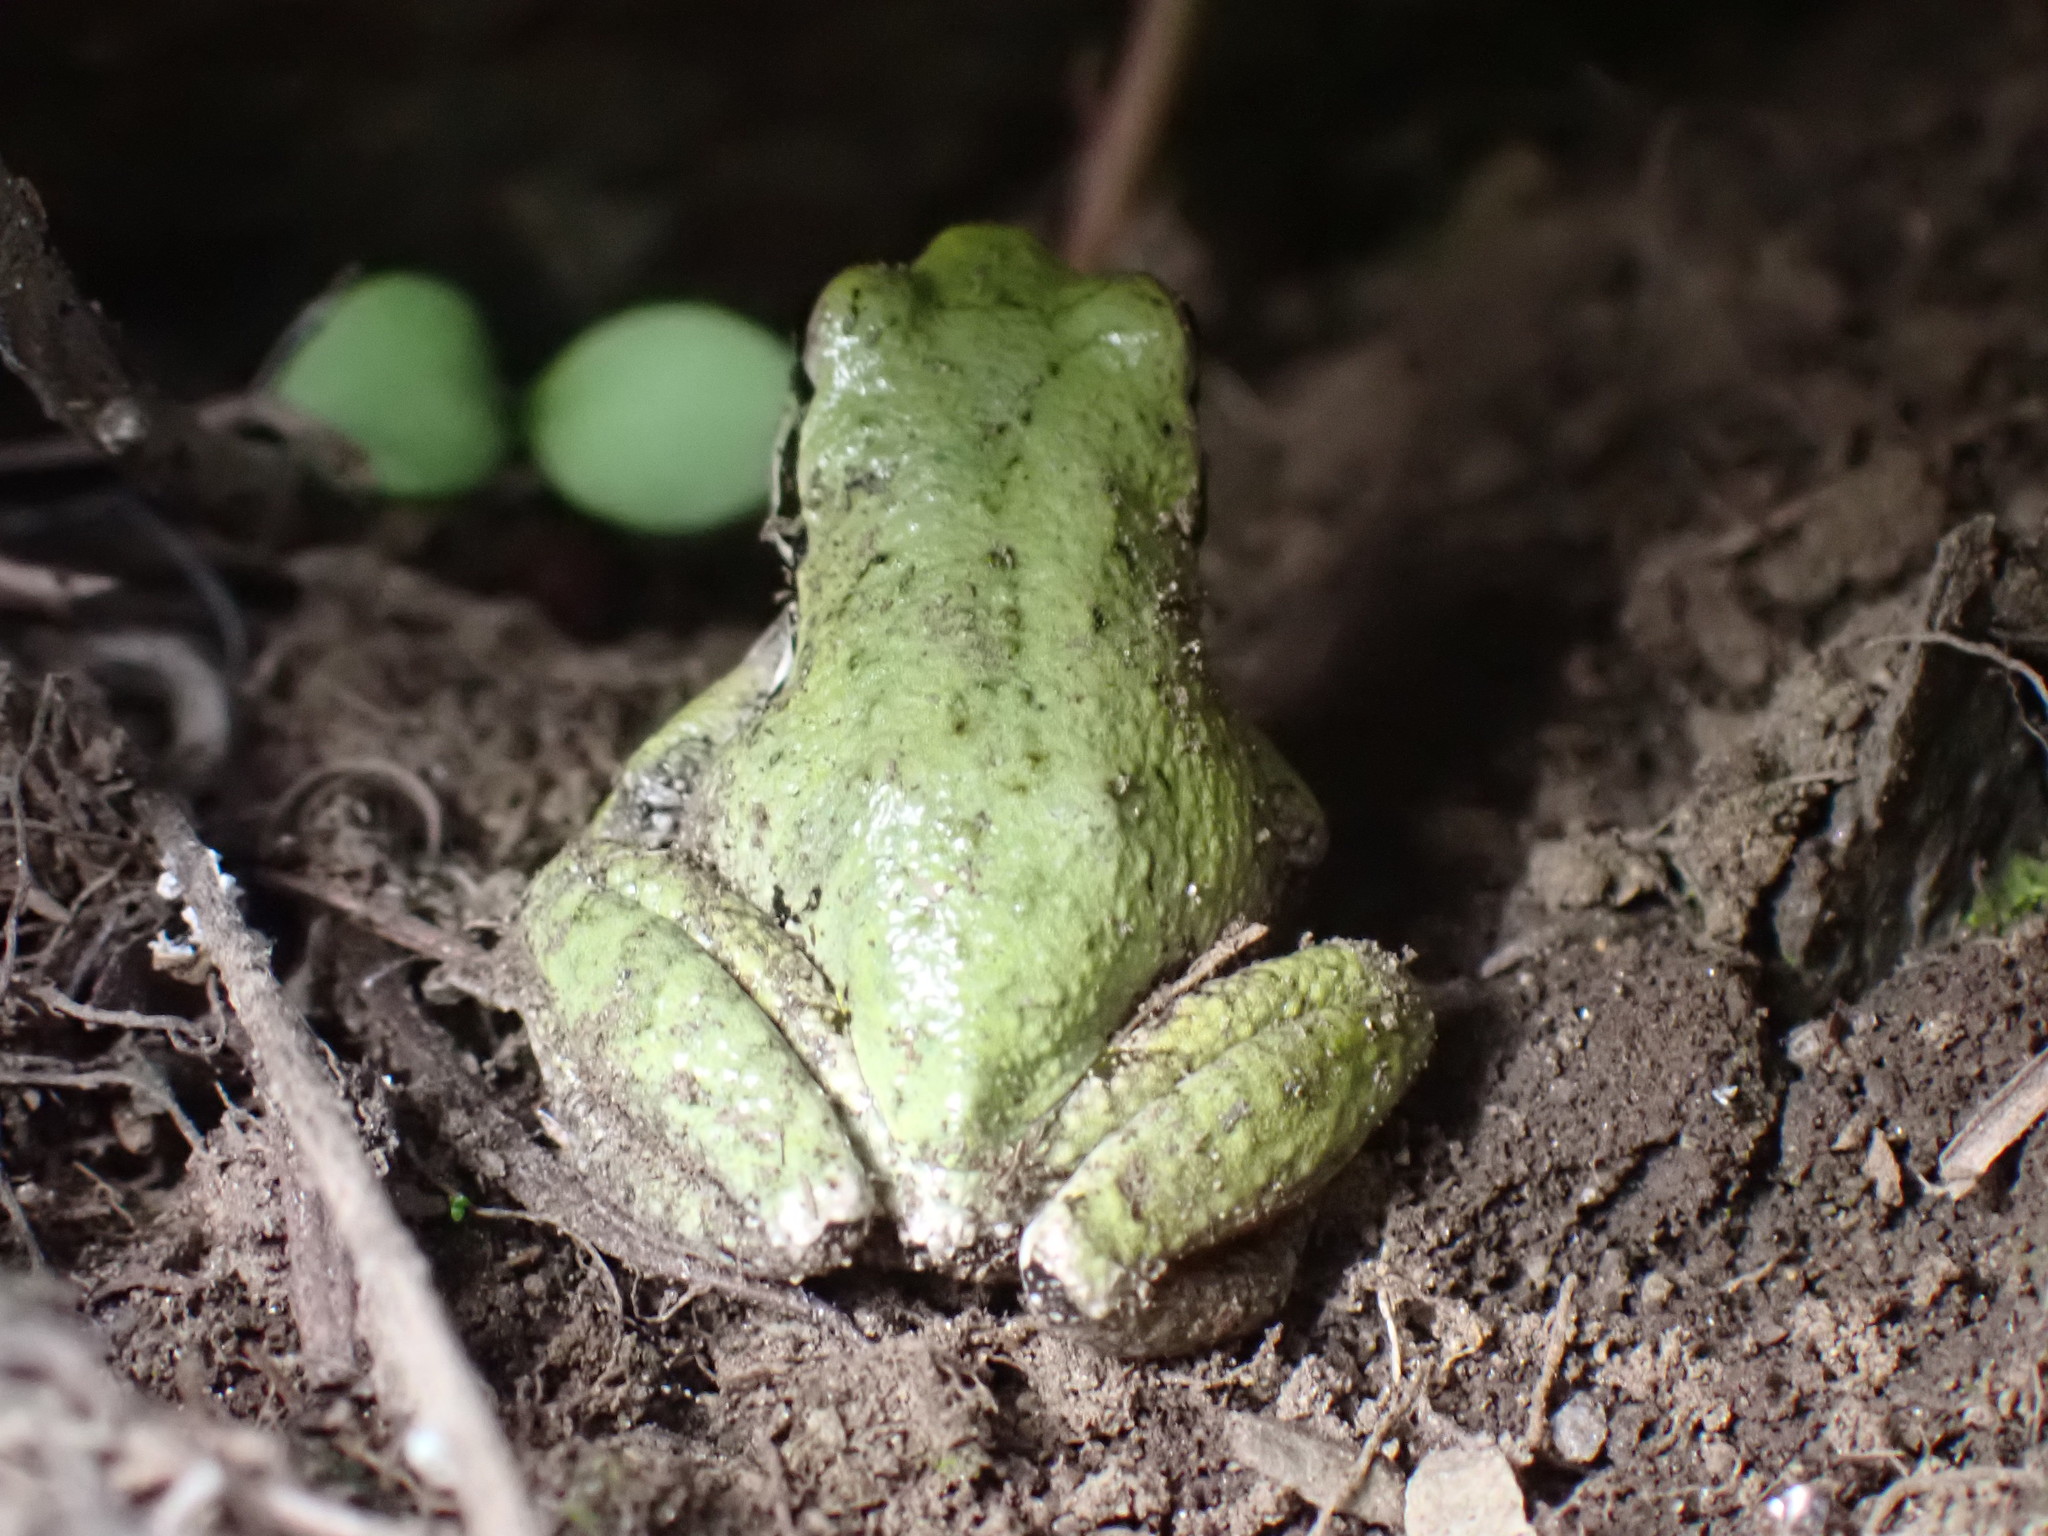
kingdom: Animalia
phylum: Chordata
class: Amphibia
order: Anura
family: Hylidae
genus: Pseudacris
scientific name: Pseudacris regilla
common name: Pacific chorus frog
